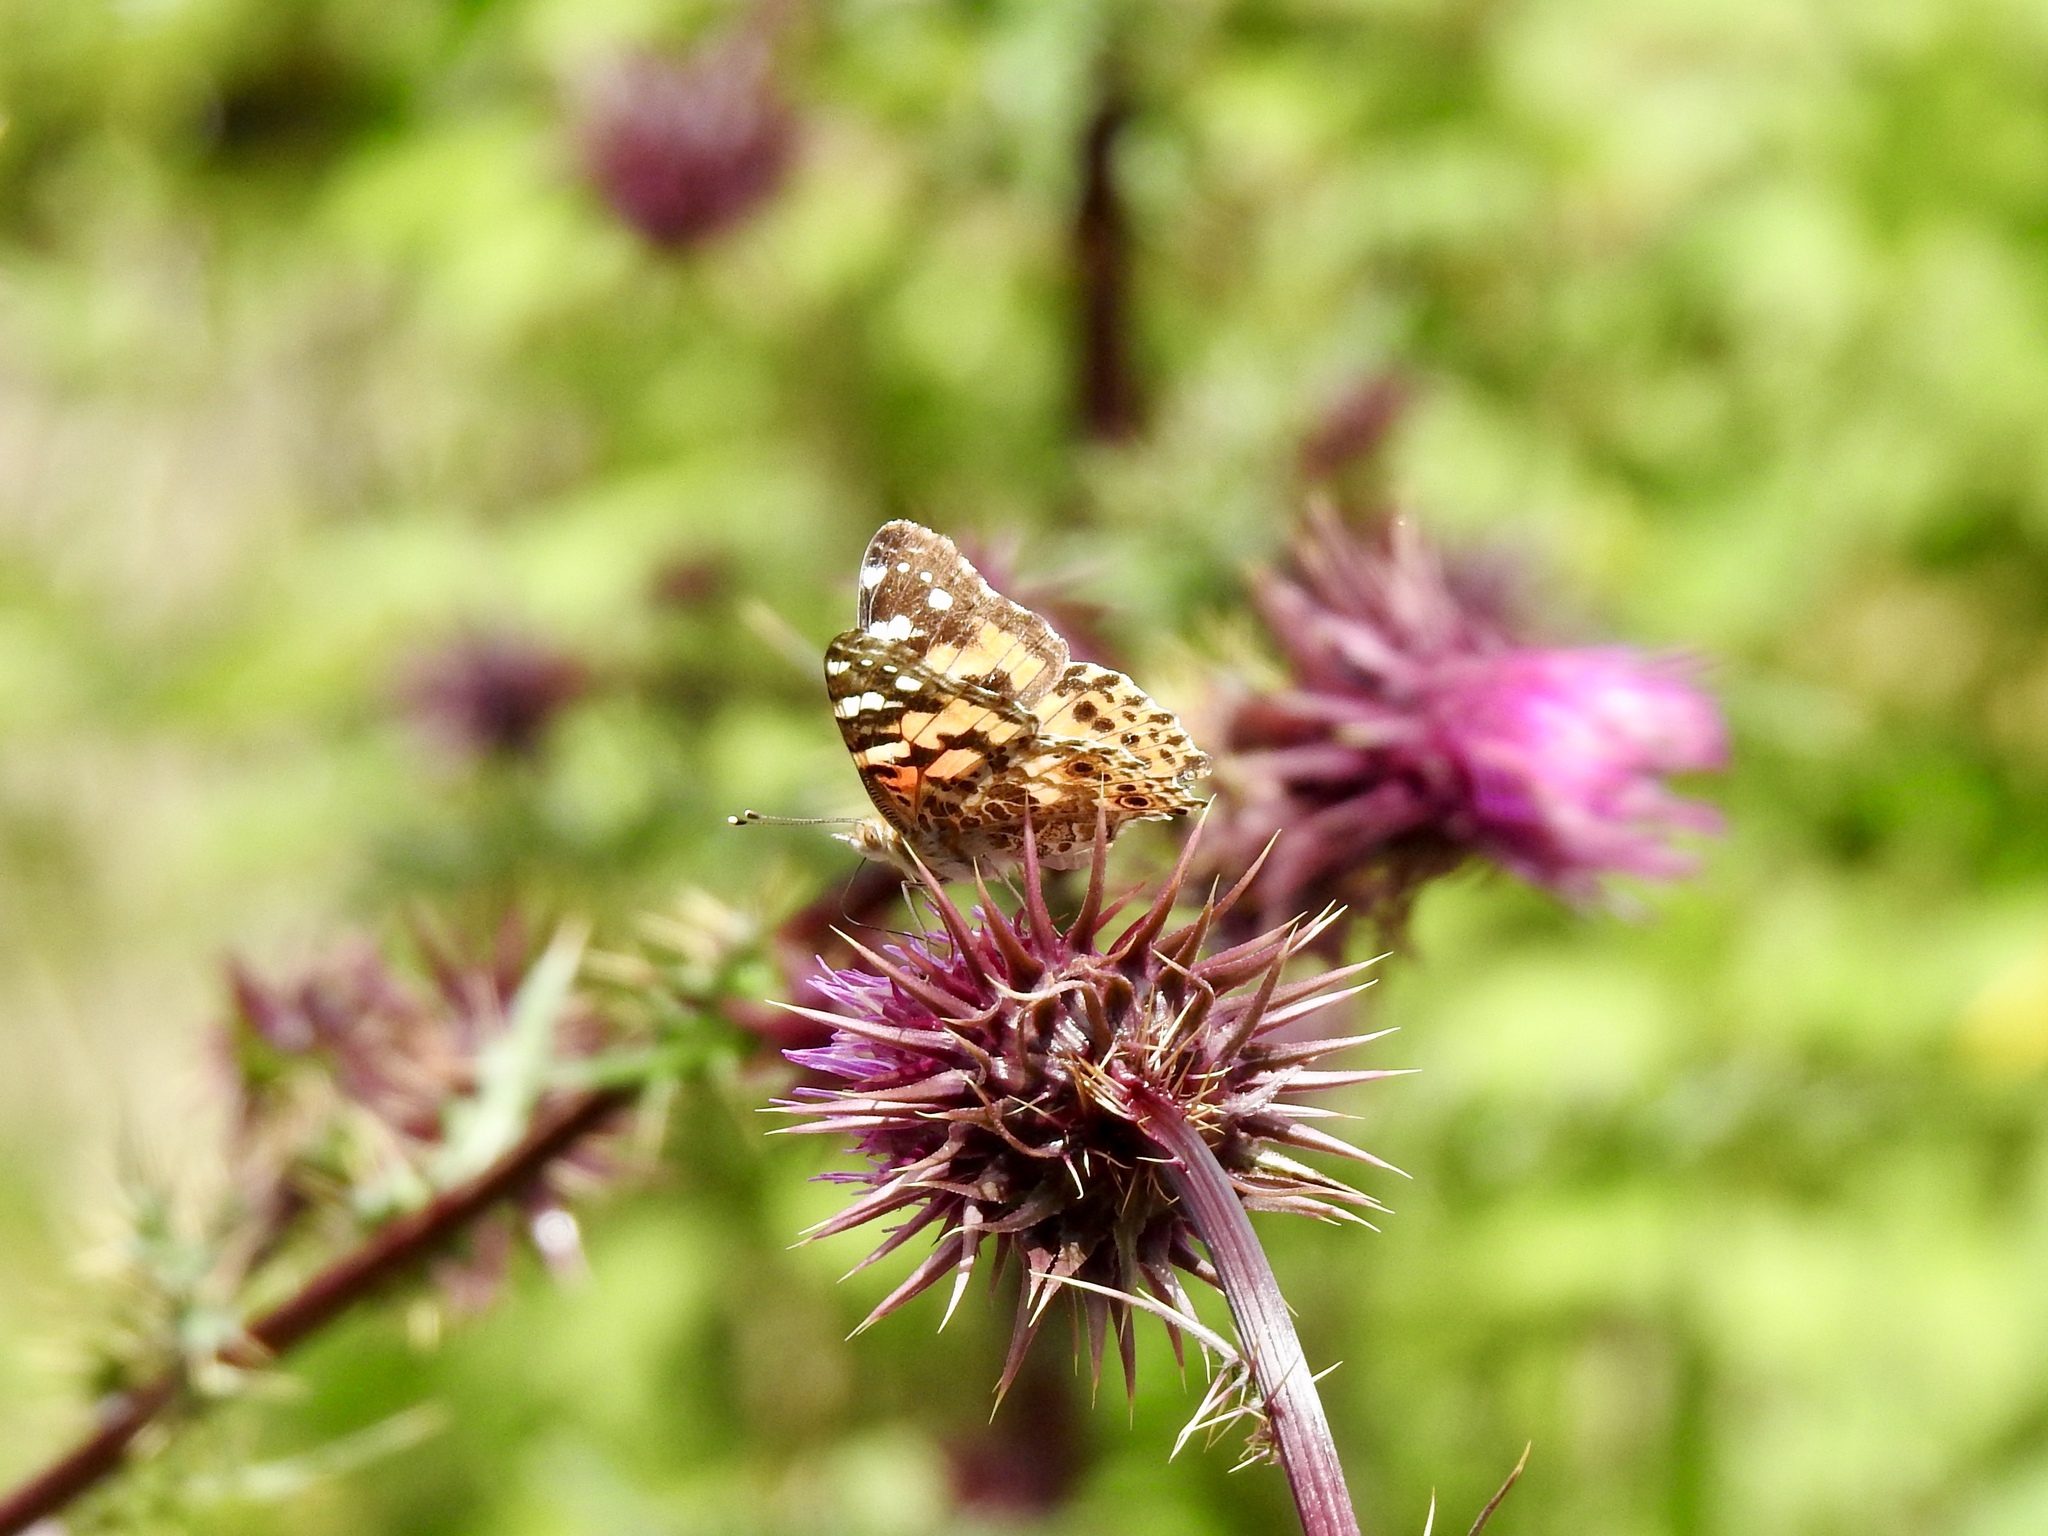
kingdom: Animalia
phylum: Arthropoda
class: Insecta
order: Lepidoptera
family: Nymphalidae
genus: Vanessa
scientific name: Vanessa cardui
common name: Painted lady
